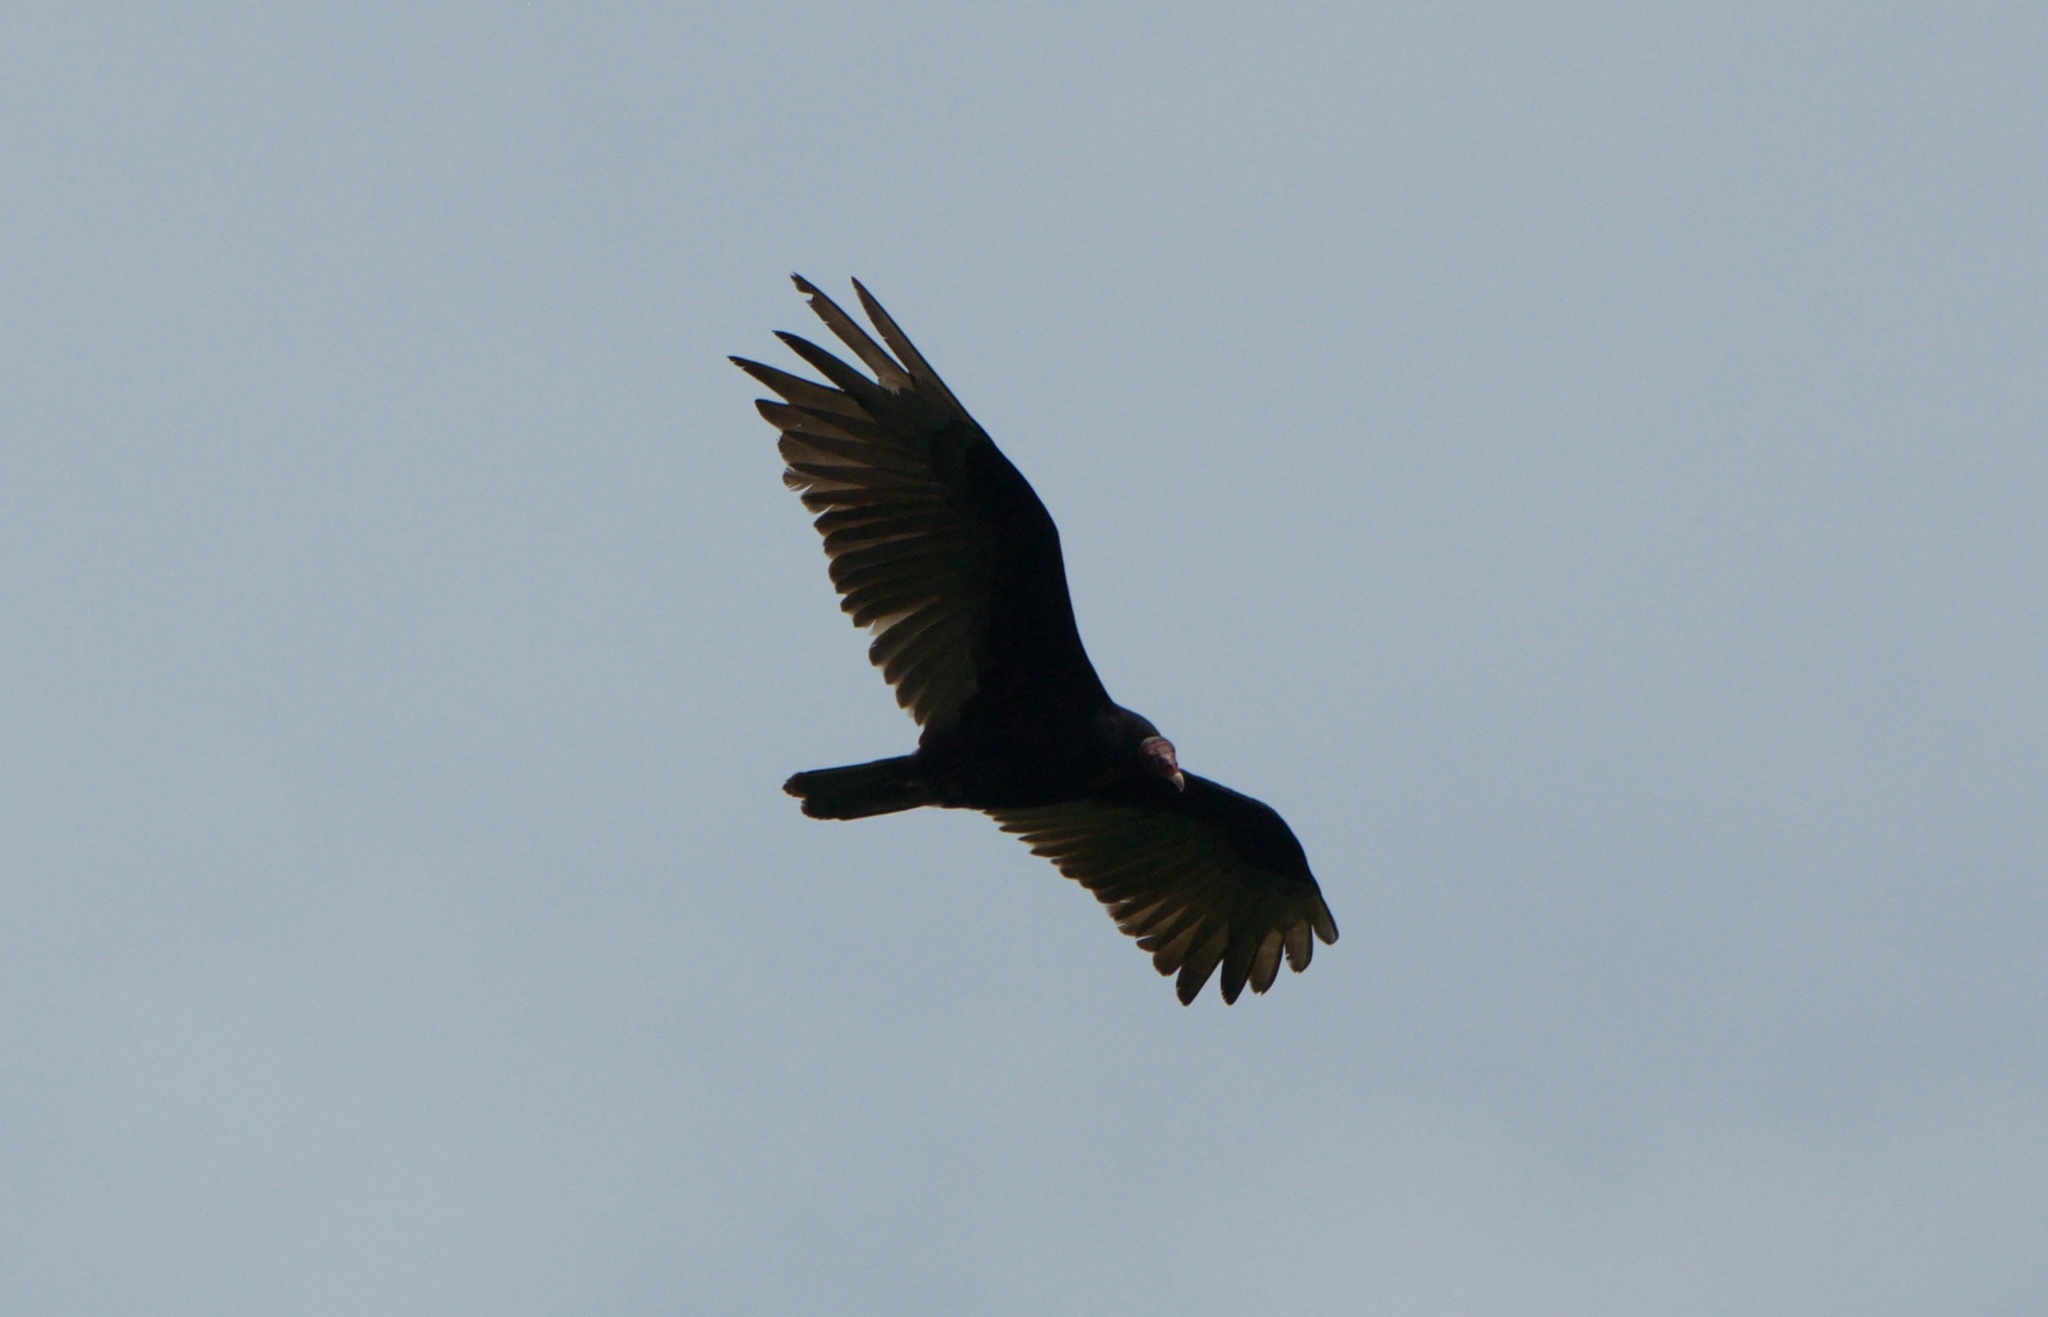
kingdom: Animalia
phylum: Chordata
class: Aves
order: Accipitriformes
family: Cathartidae
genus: Cathartes
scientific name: Cathartes aura
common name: Turkey vulture
